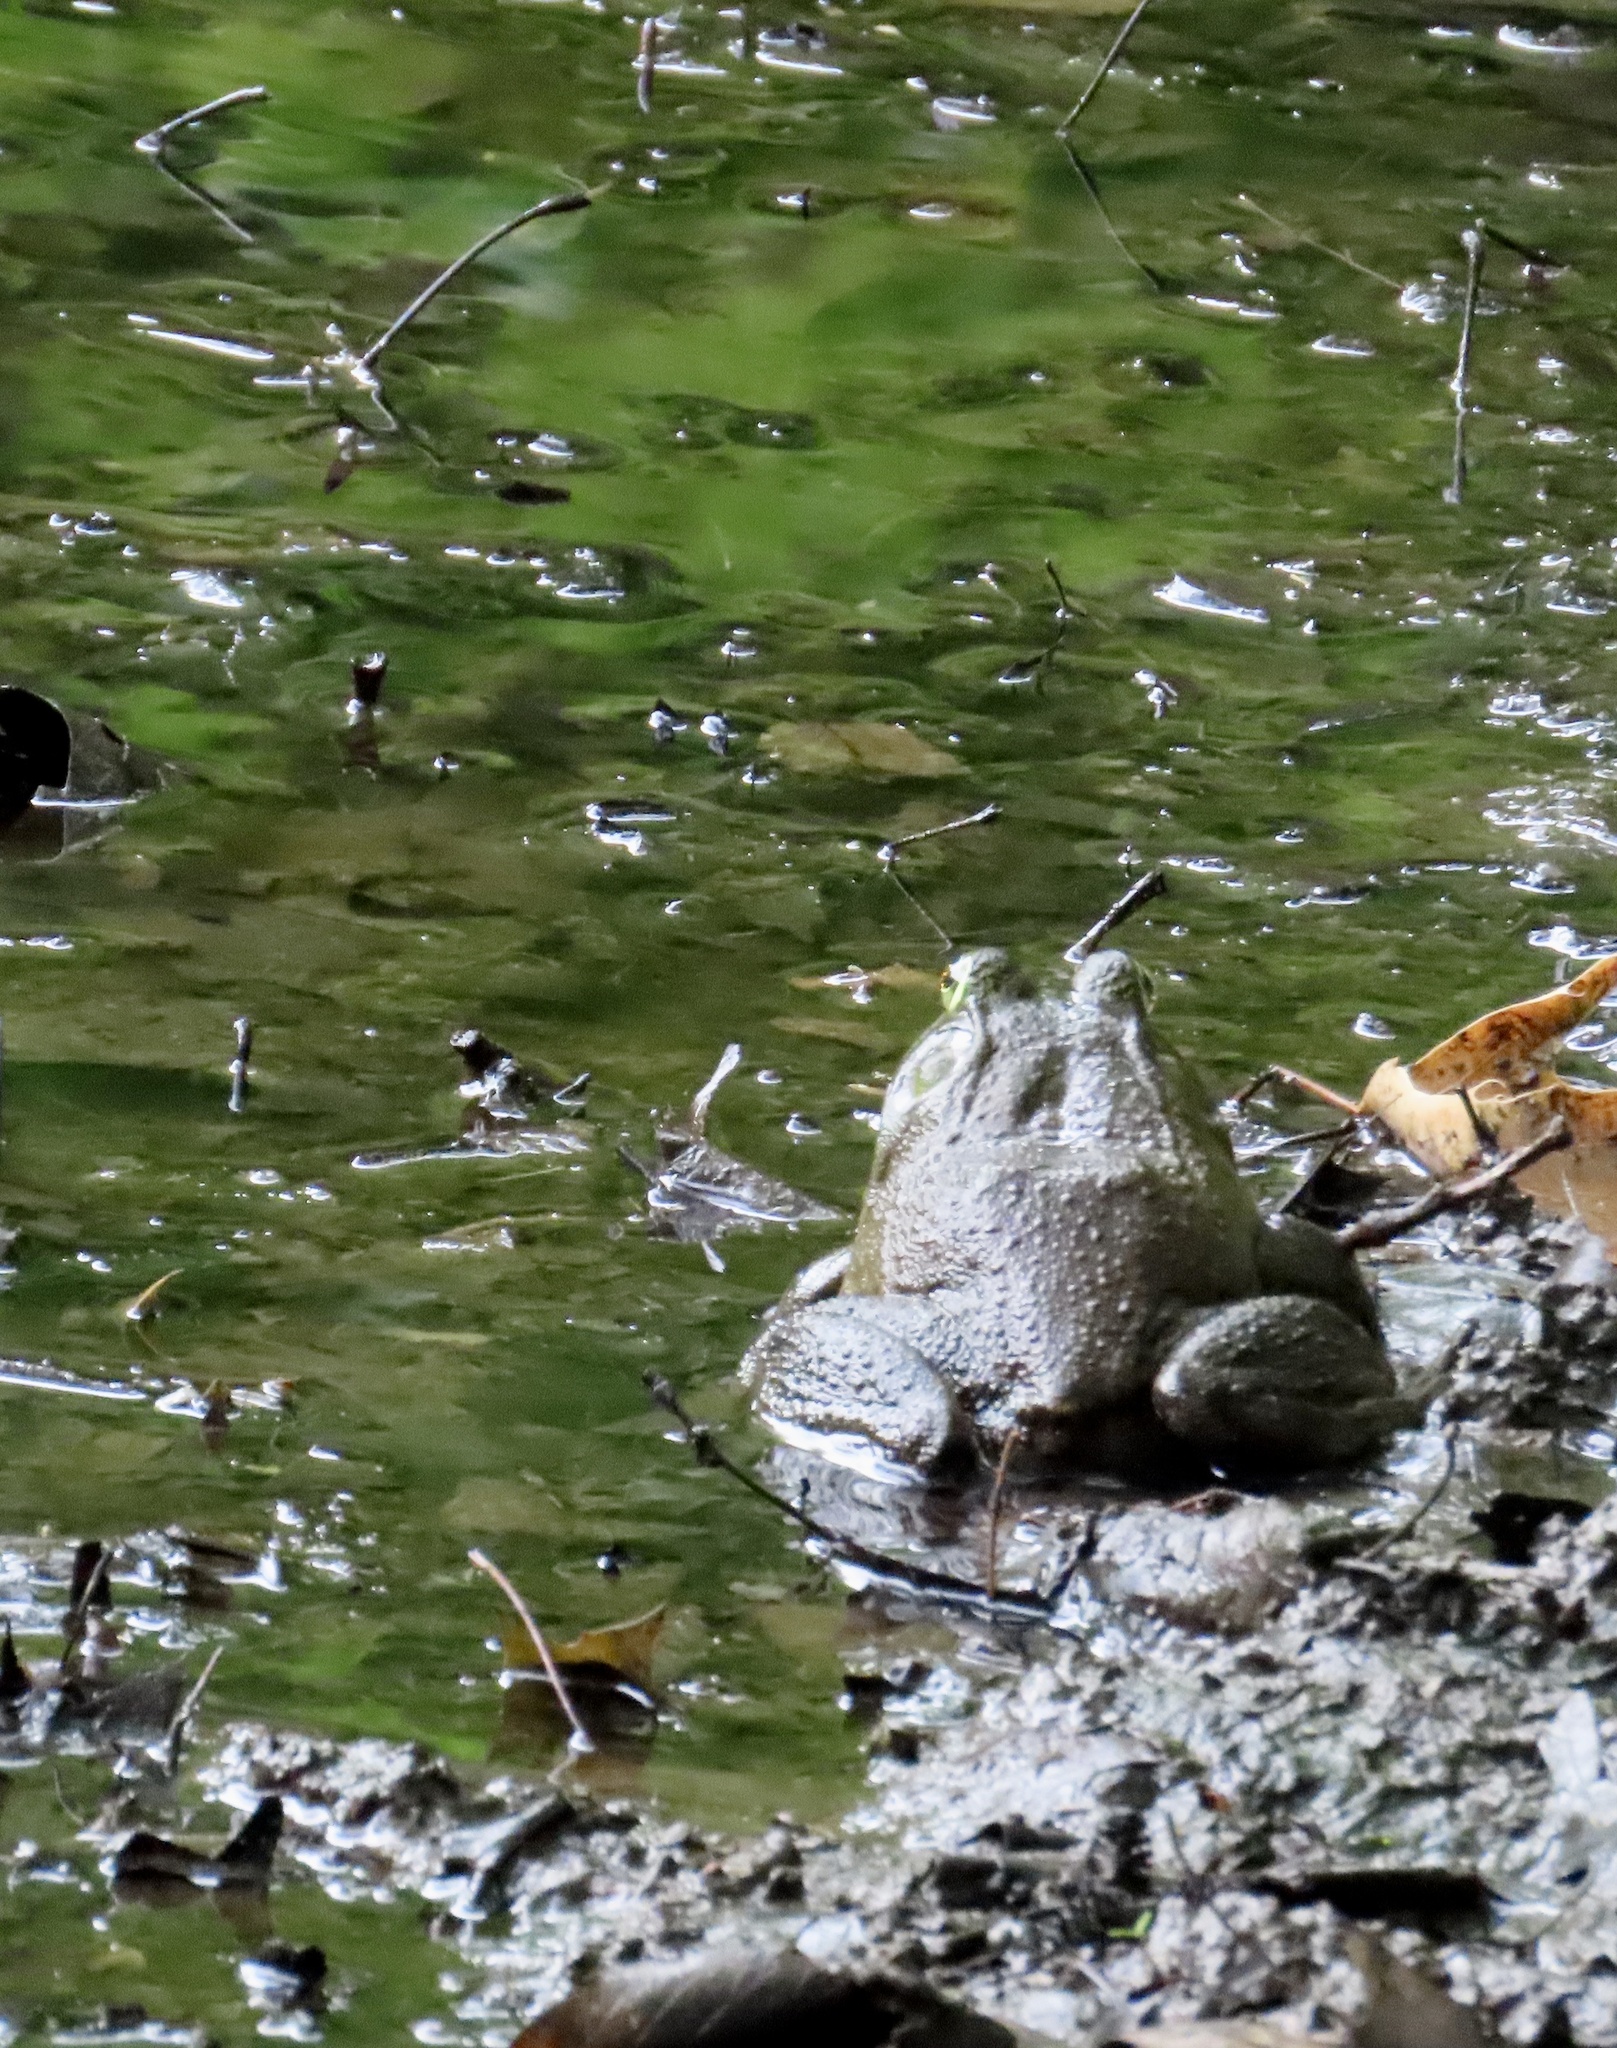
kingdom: Animalia
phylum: Chordata
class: Amphibia
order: Anura
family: Ranidae
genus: Lithobates
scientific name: Lithobates catesbeianus
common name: American bullfrog
